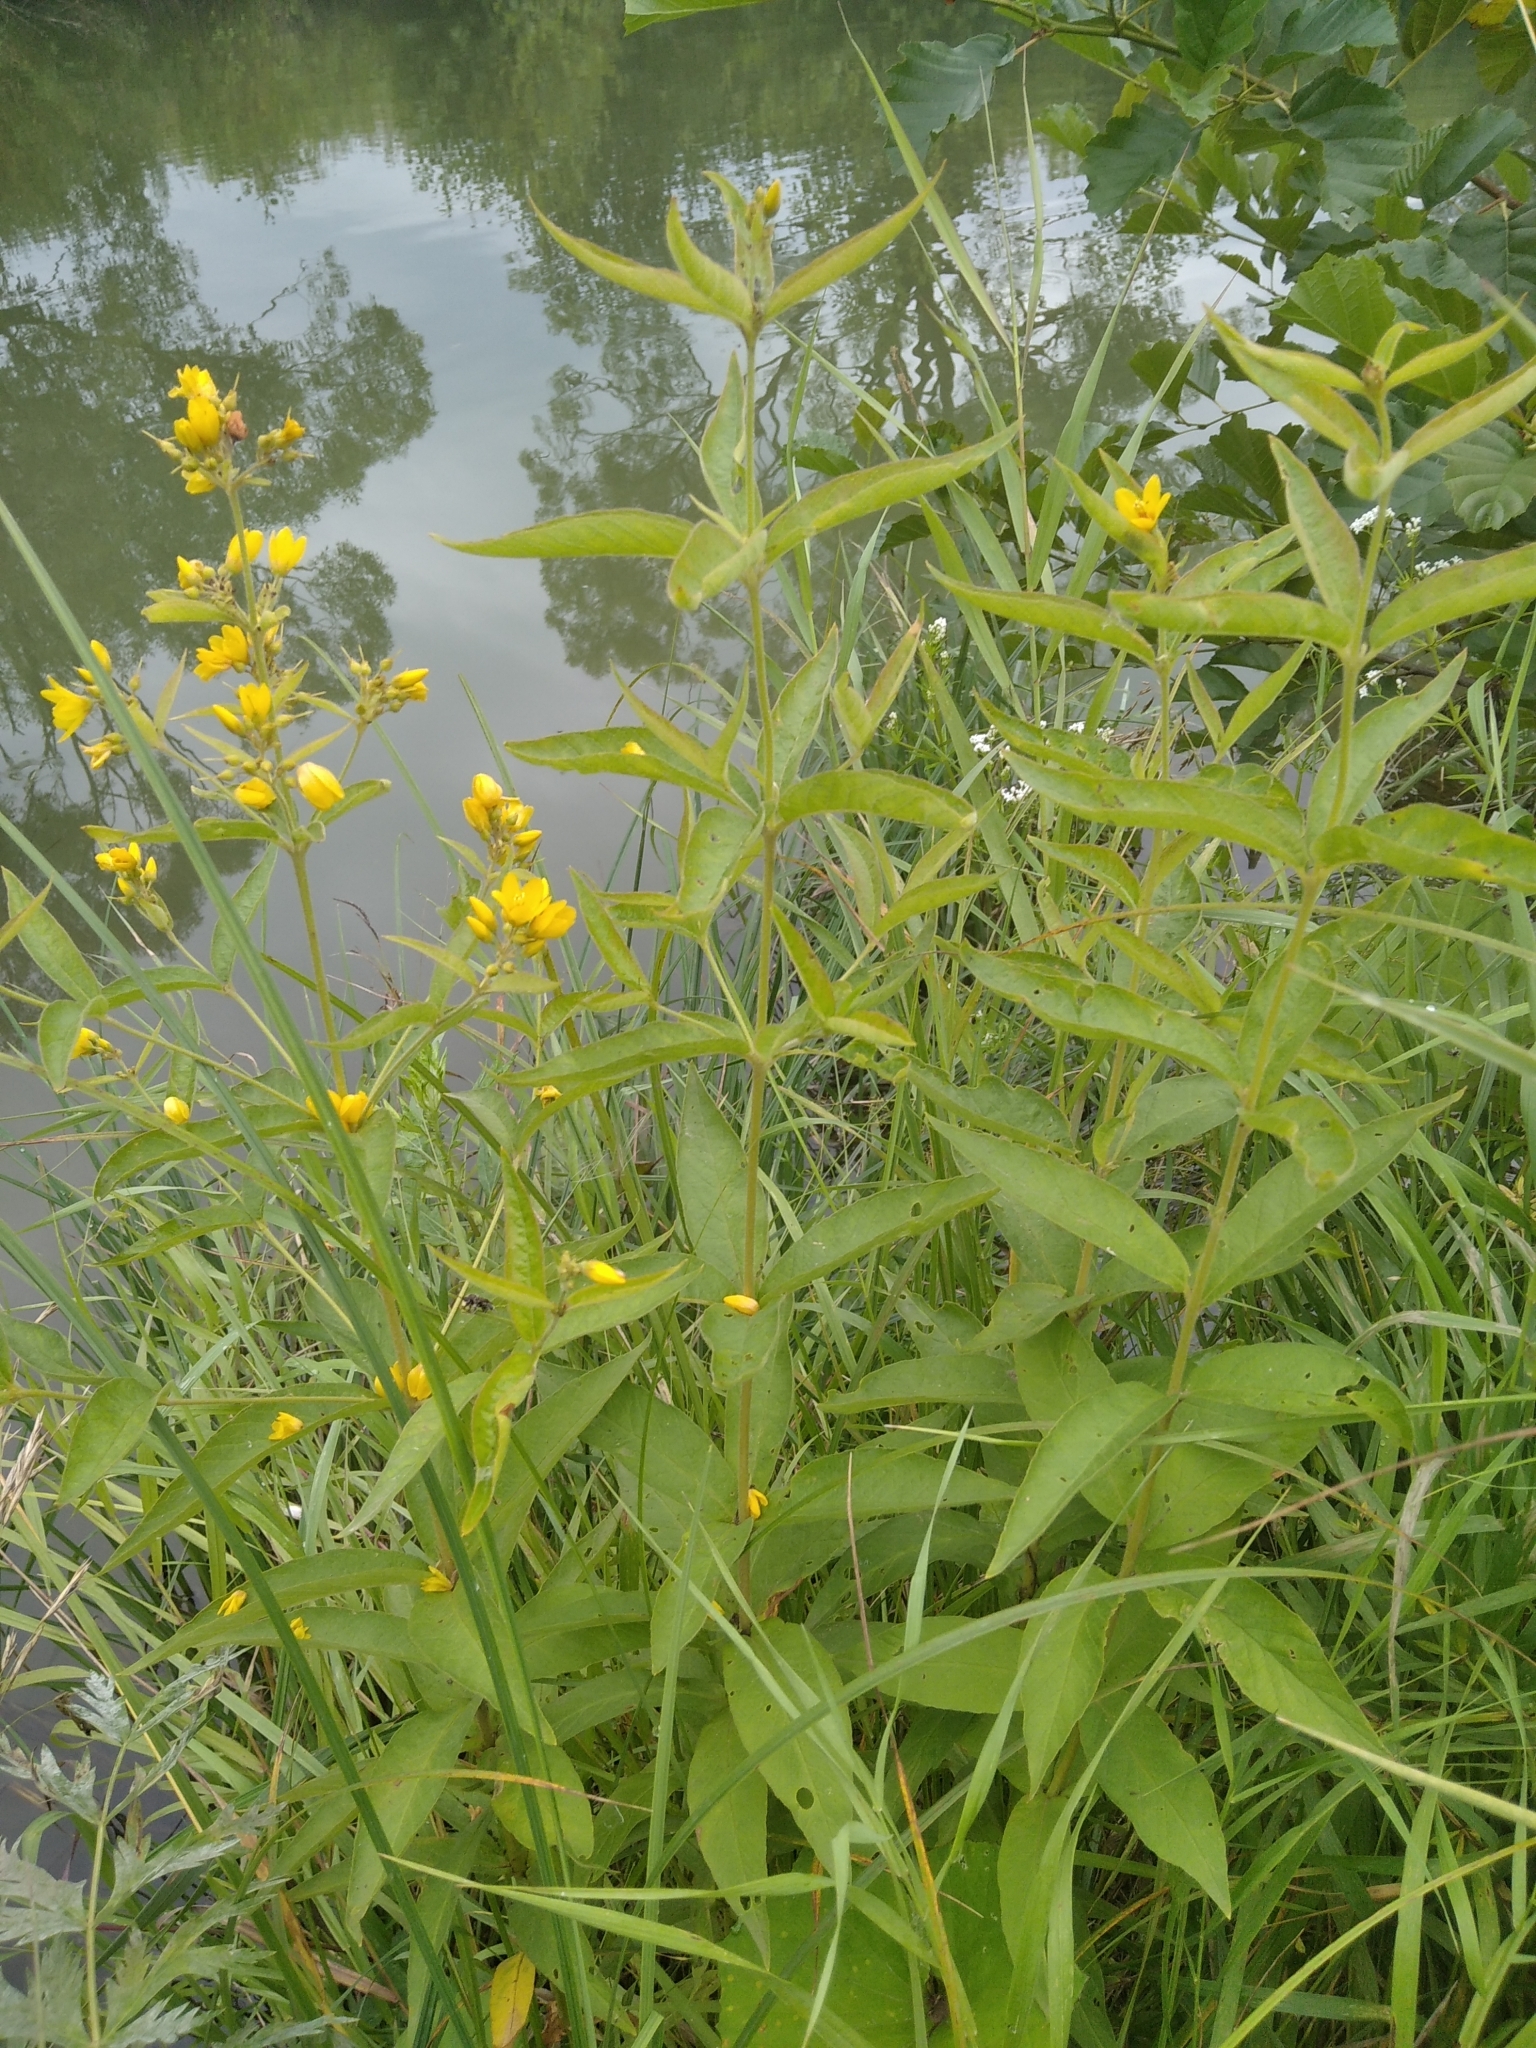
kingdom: Plantae
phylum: Tracheophyta
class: Magnoliopsida
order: Ericales
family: Primulaceae
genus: Lysimachia
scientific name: Lysimachia vulgaris
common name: Yellow loosestrife
